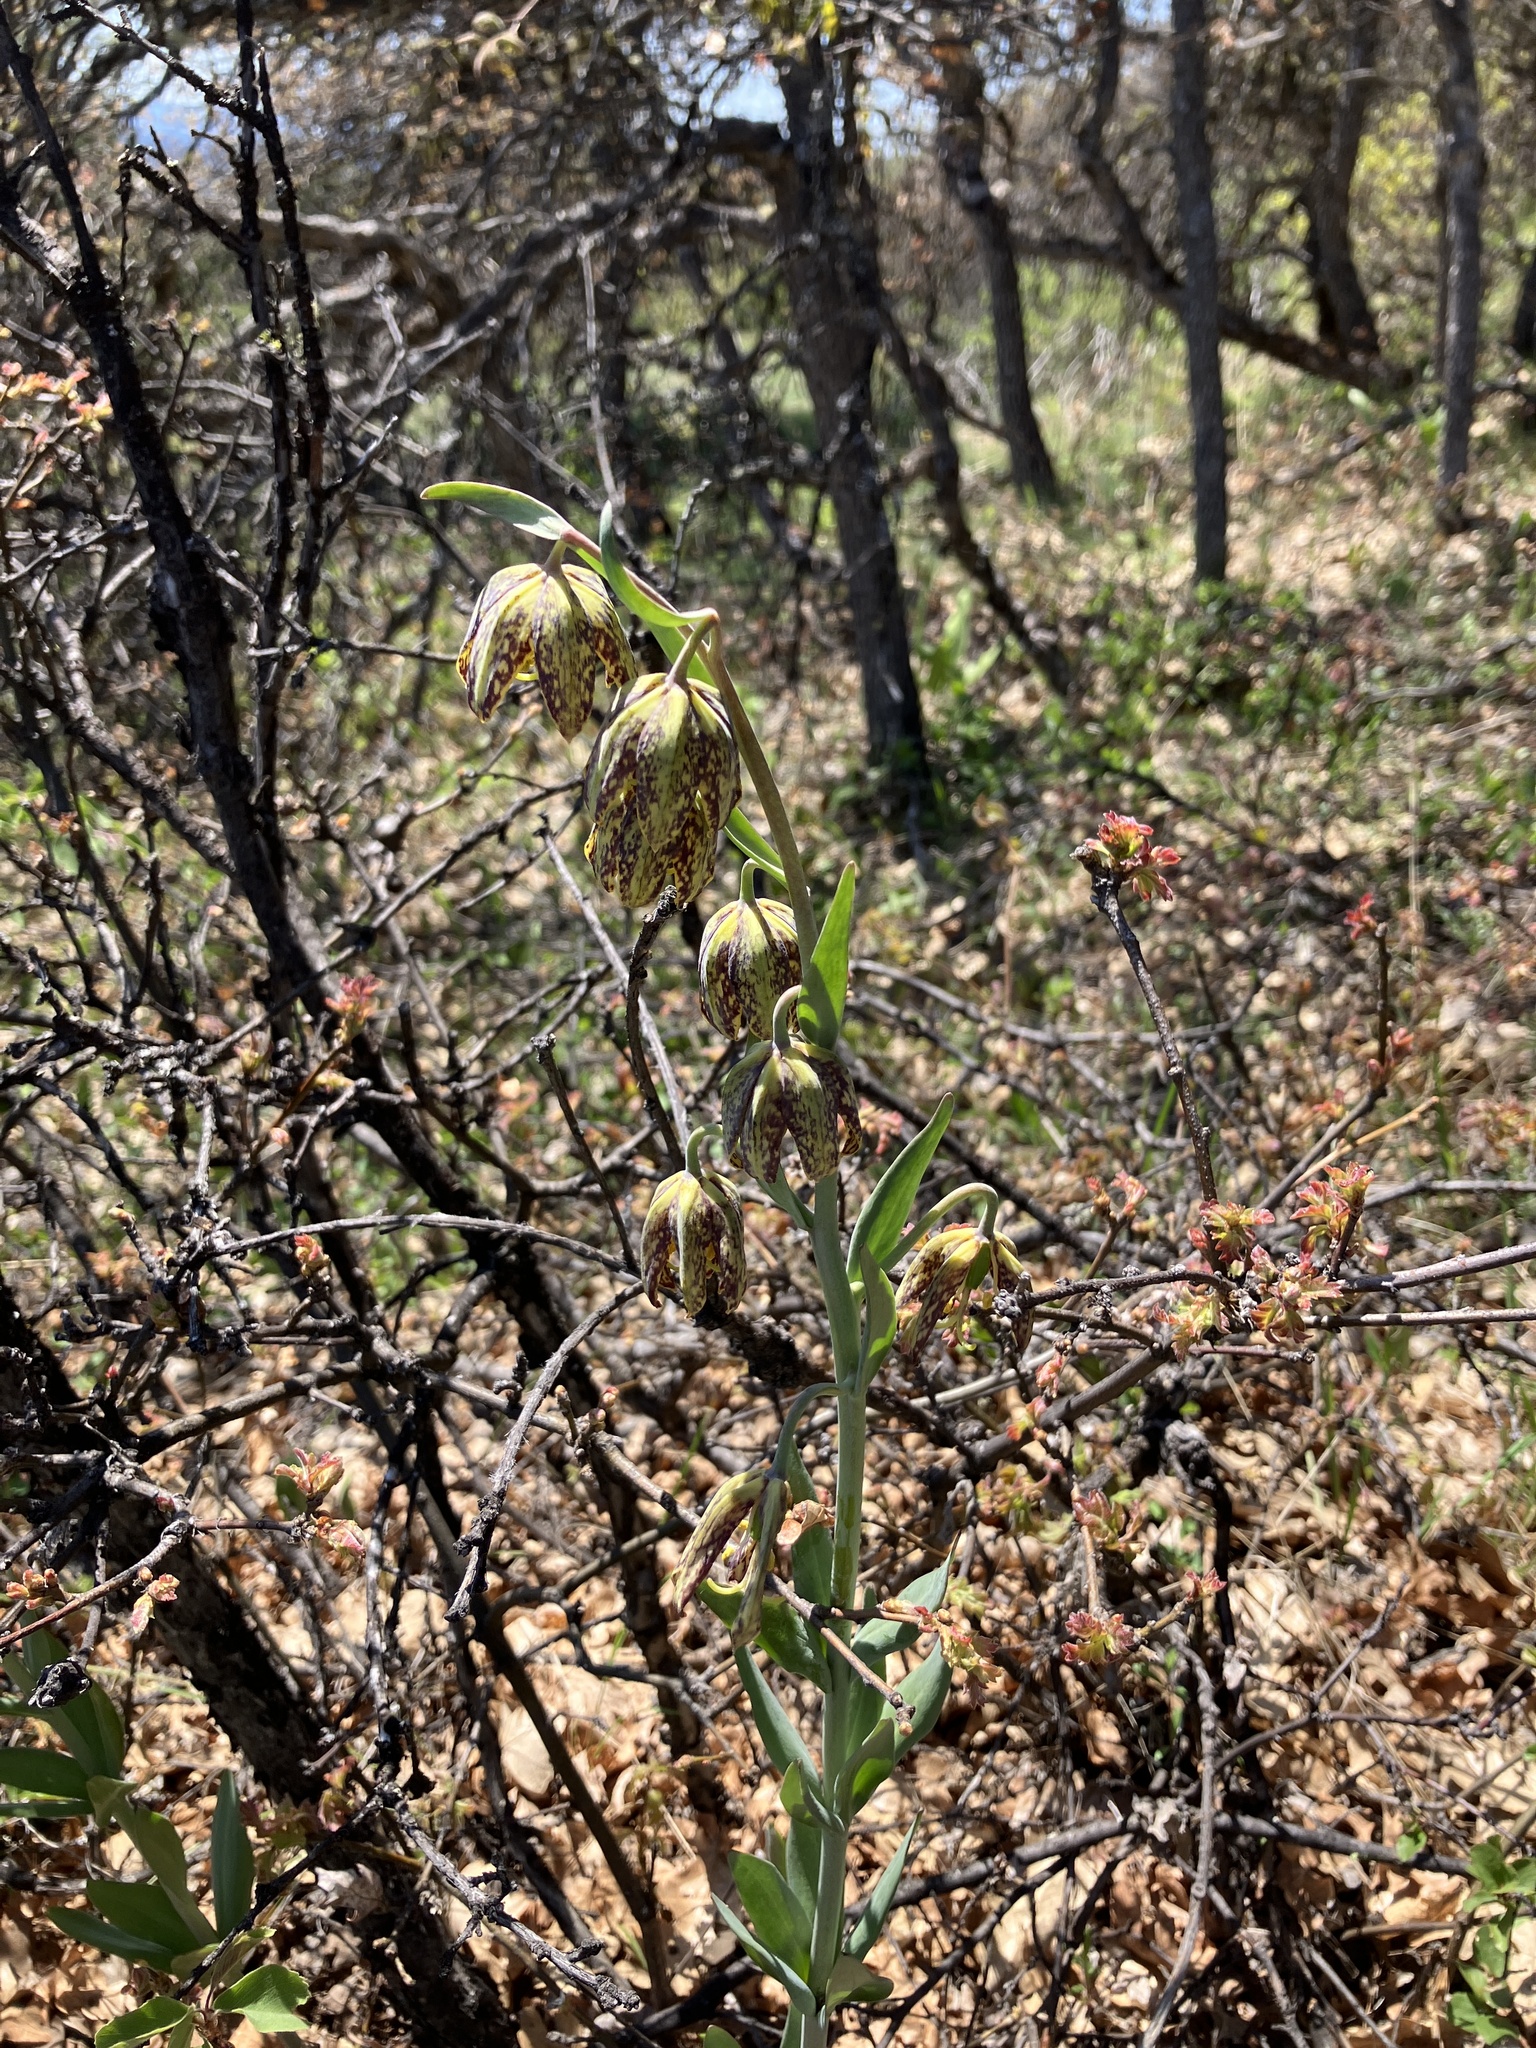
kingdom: Plantae
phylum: Tracheophyta
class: Liliopsida
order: Liliales
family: Liliaceae
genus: Fritillaria
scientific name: Fritillaria affinis
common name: Ojai fritillary
